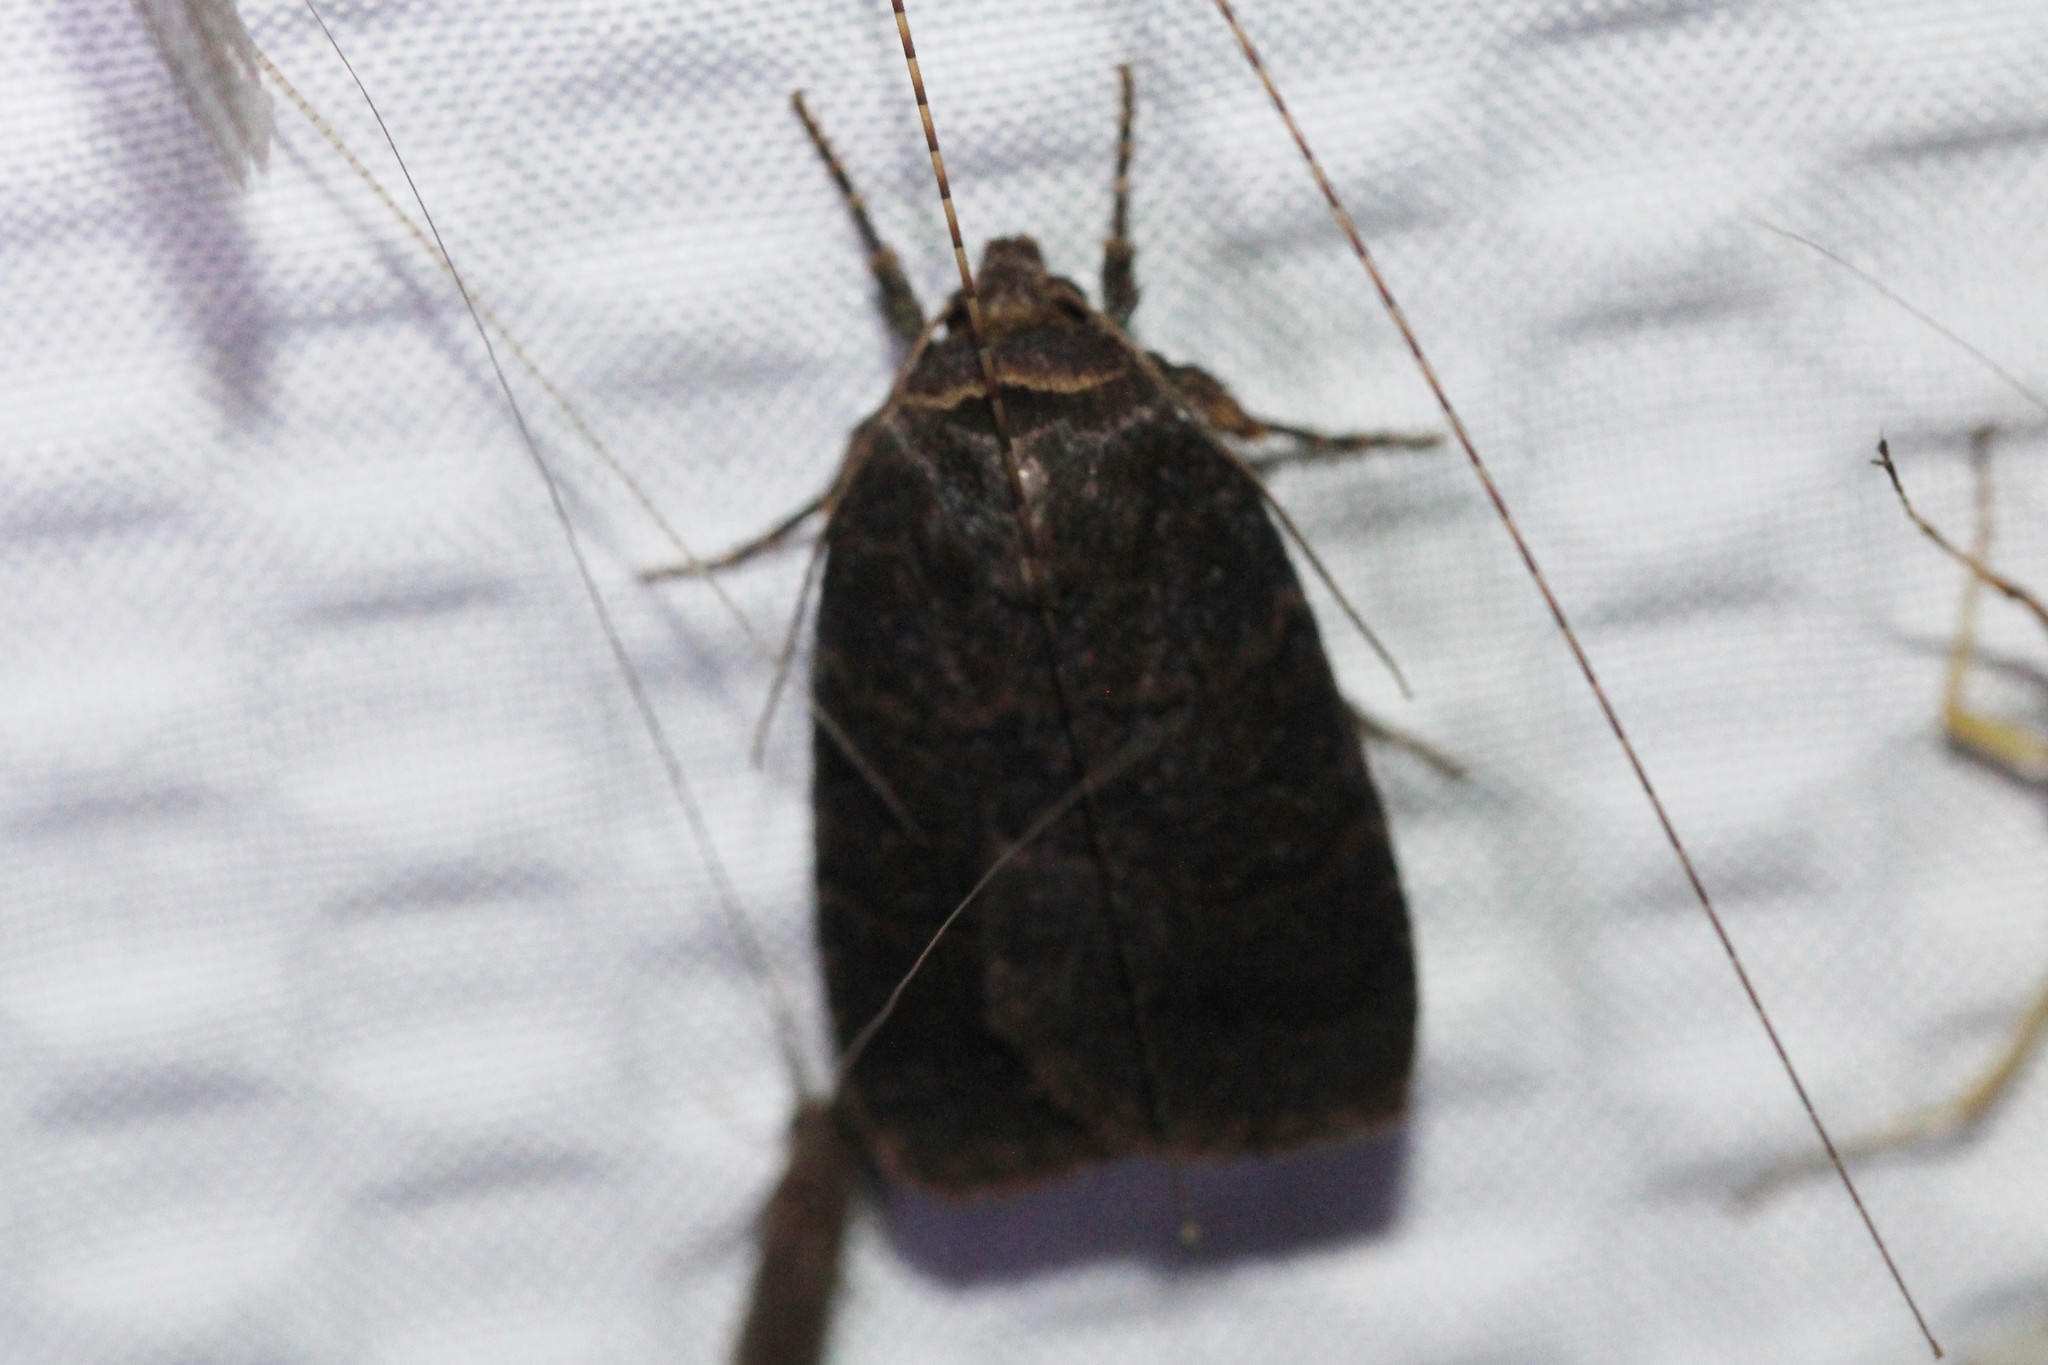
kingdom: Animalia
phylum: Arthropoda
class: Insecta
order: Lepidoptera
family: Noctuidae
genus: Orthodes
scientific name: Orthodes cynica
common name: Cynical quaker
